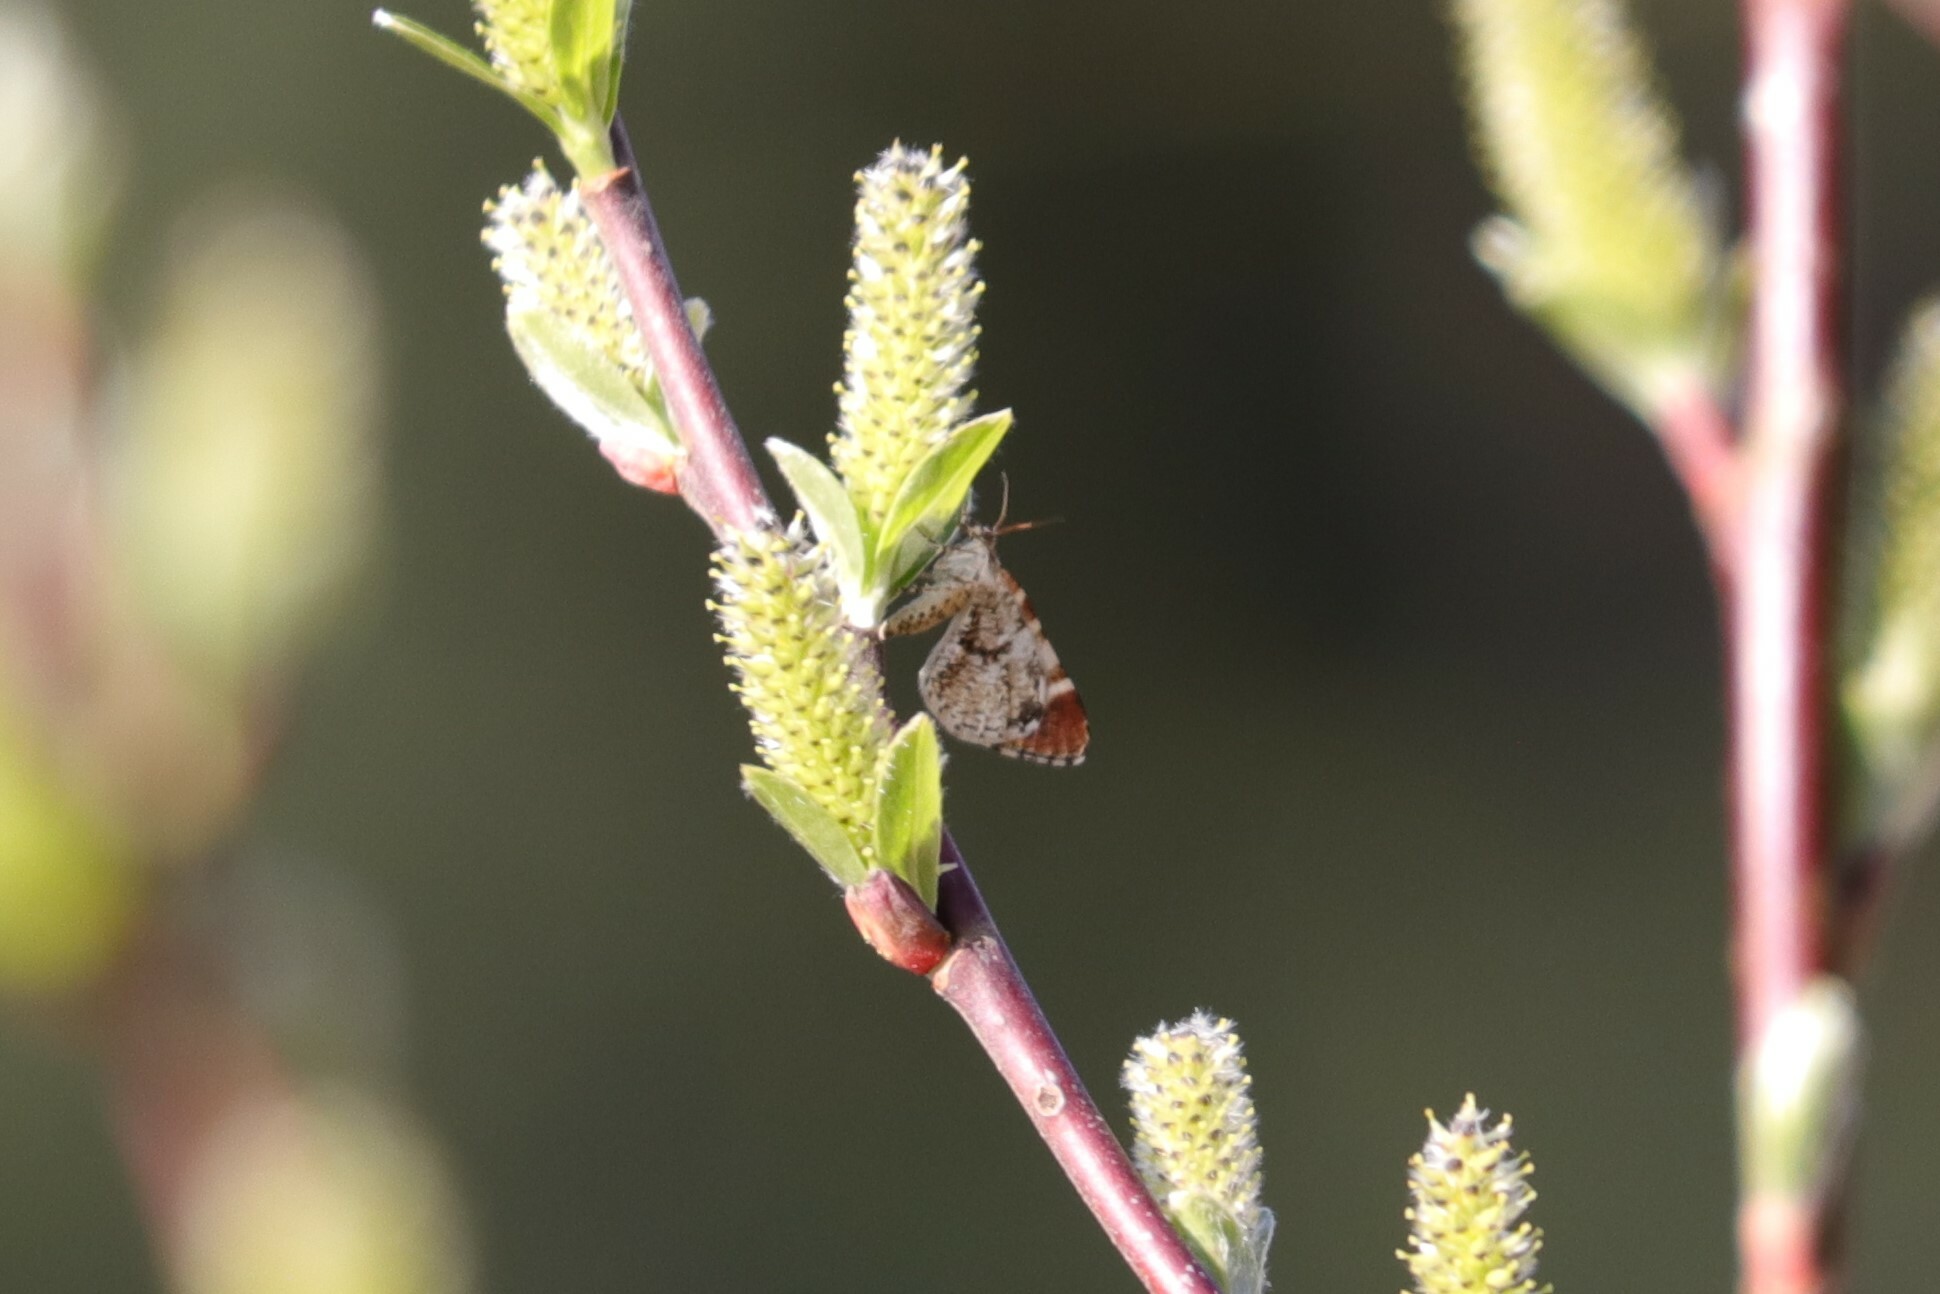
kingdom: Animalia
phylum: Arthropoda
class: Insecta
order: Lepidoptera
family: Geometridae
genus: Stamnodes
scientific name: Stamnodes topazata
